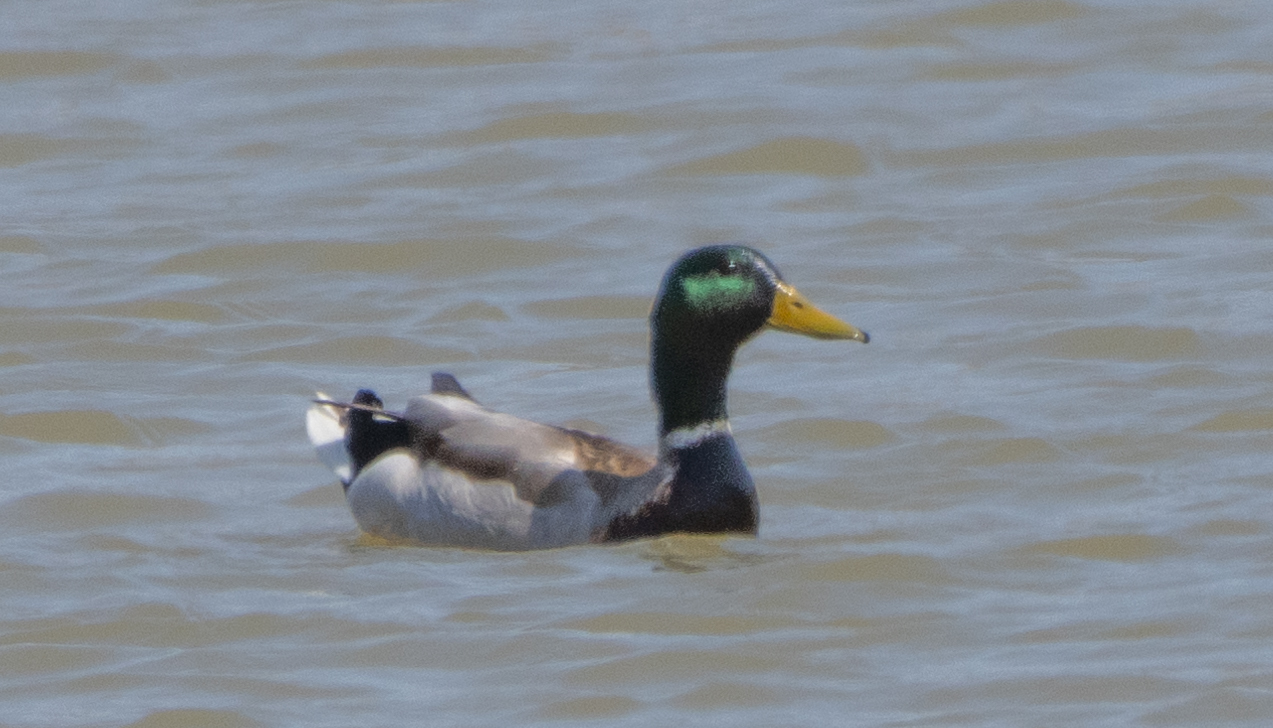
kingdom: Animalia
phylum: Chordata
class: Aves
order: Anseriformes
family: Anatidae
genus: Anas
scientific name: Anas platyrhynchos
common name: Mallard
